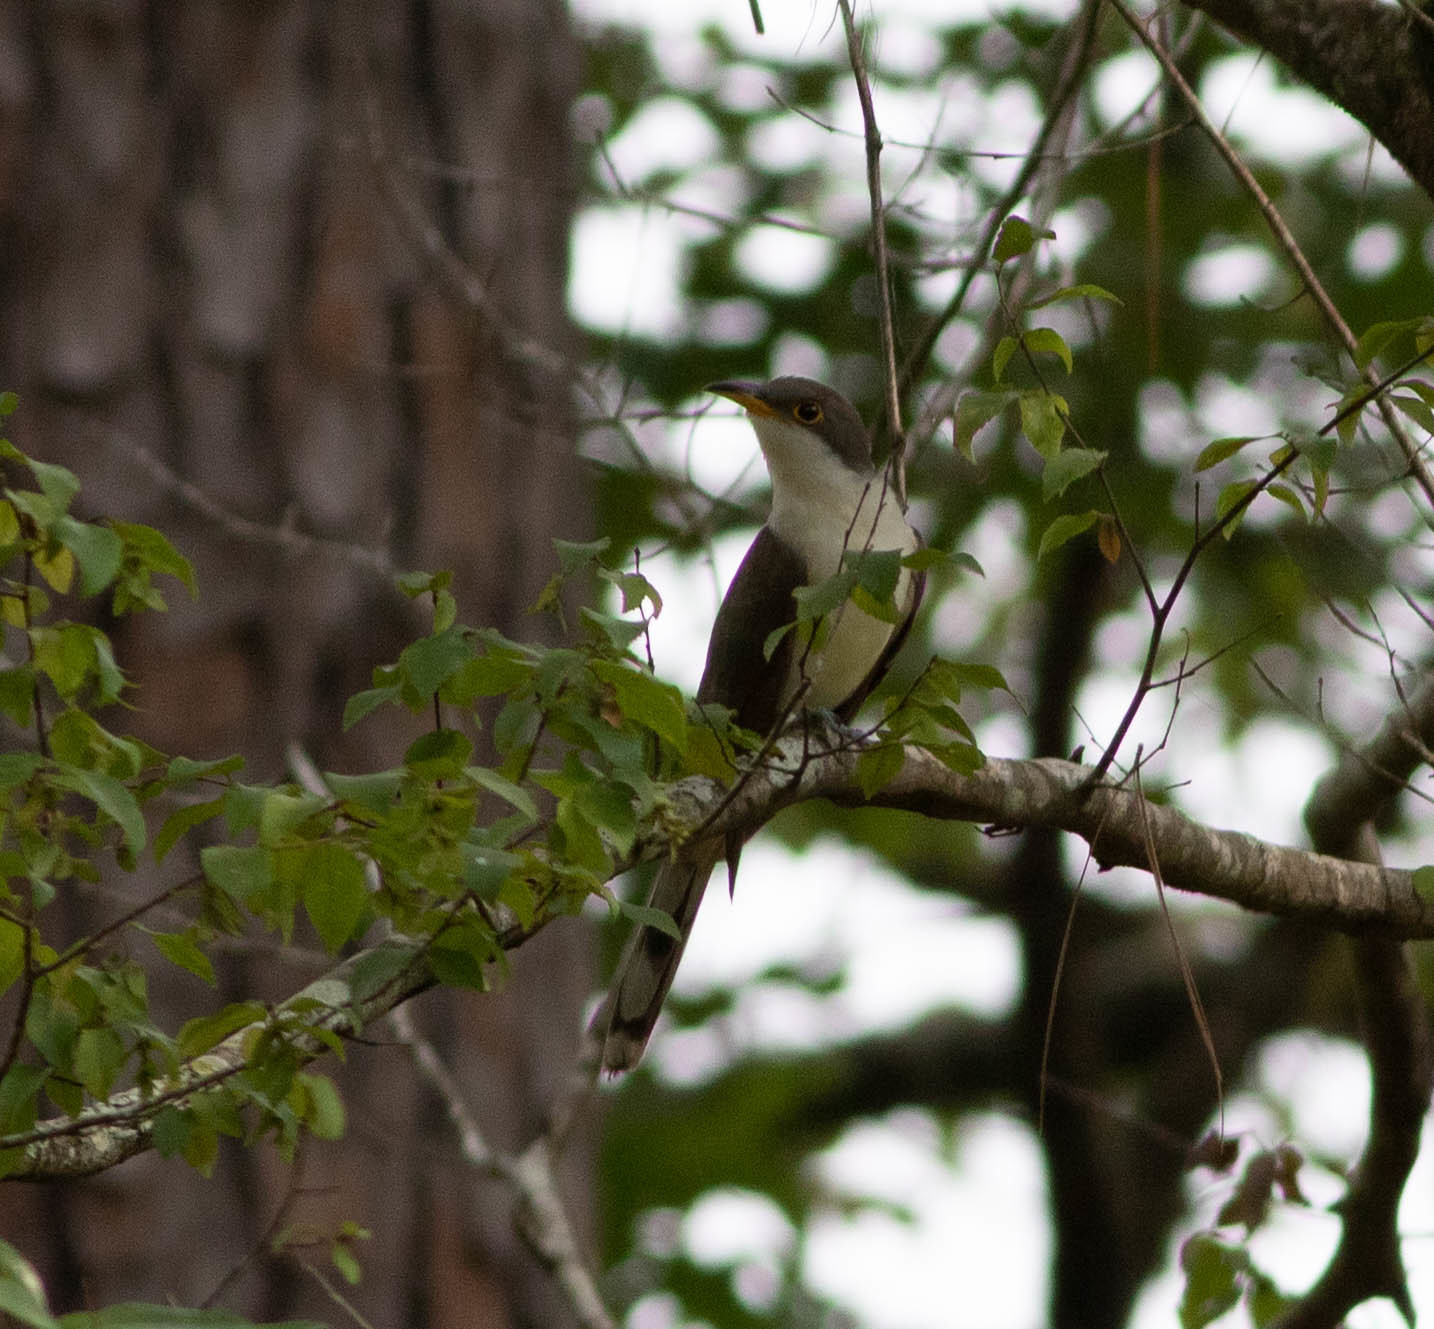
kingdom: Animalia
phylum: Chordata
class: Aves
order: Cuculiformes
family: Cuculidae
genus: Coccyzus
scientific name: Coccyzus americanus
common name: Yellow-billed cuckoo
